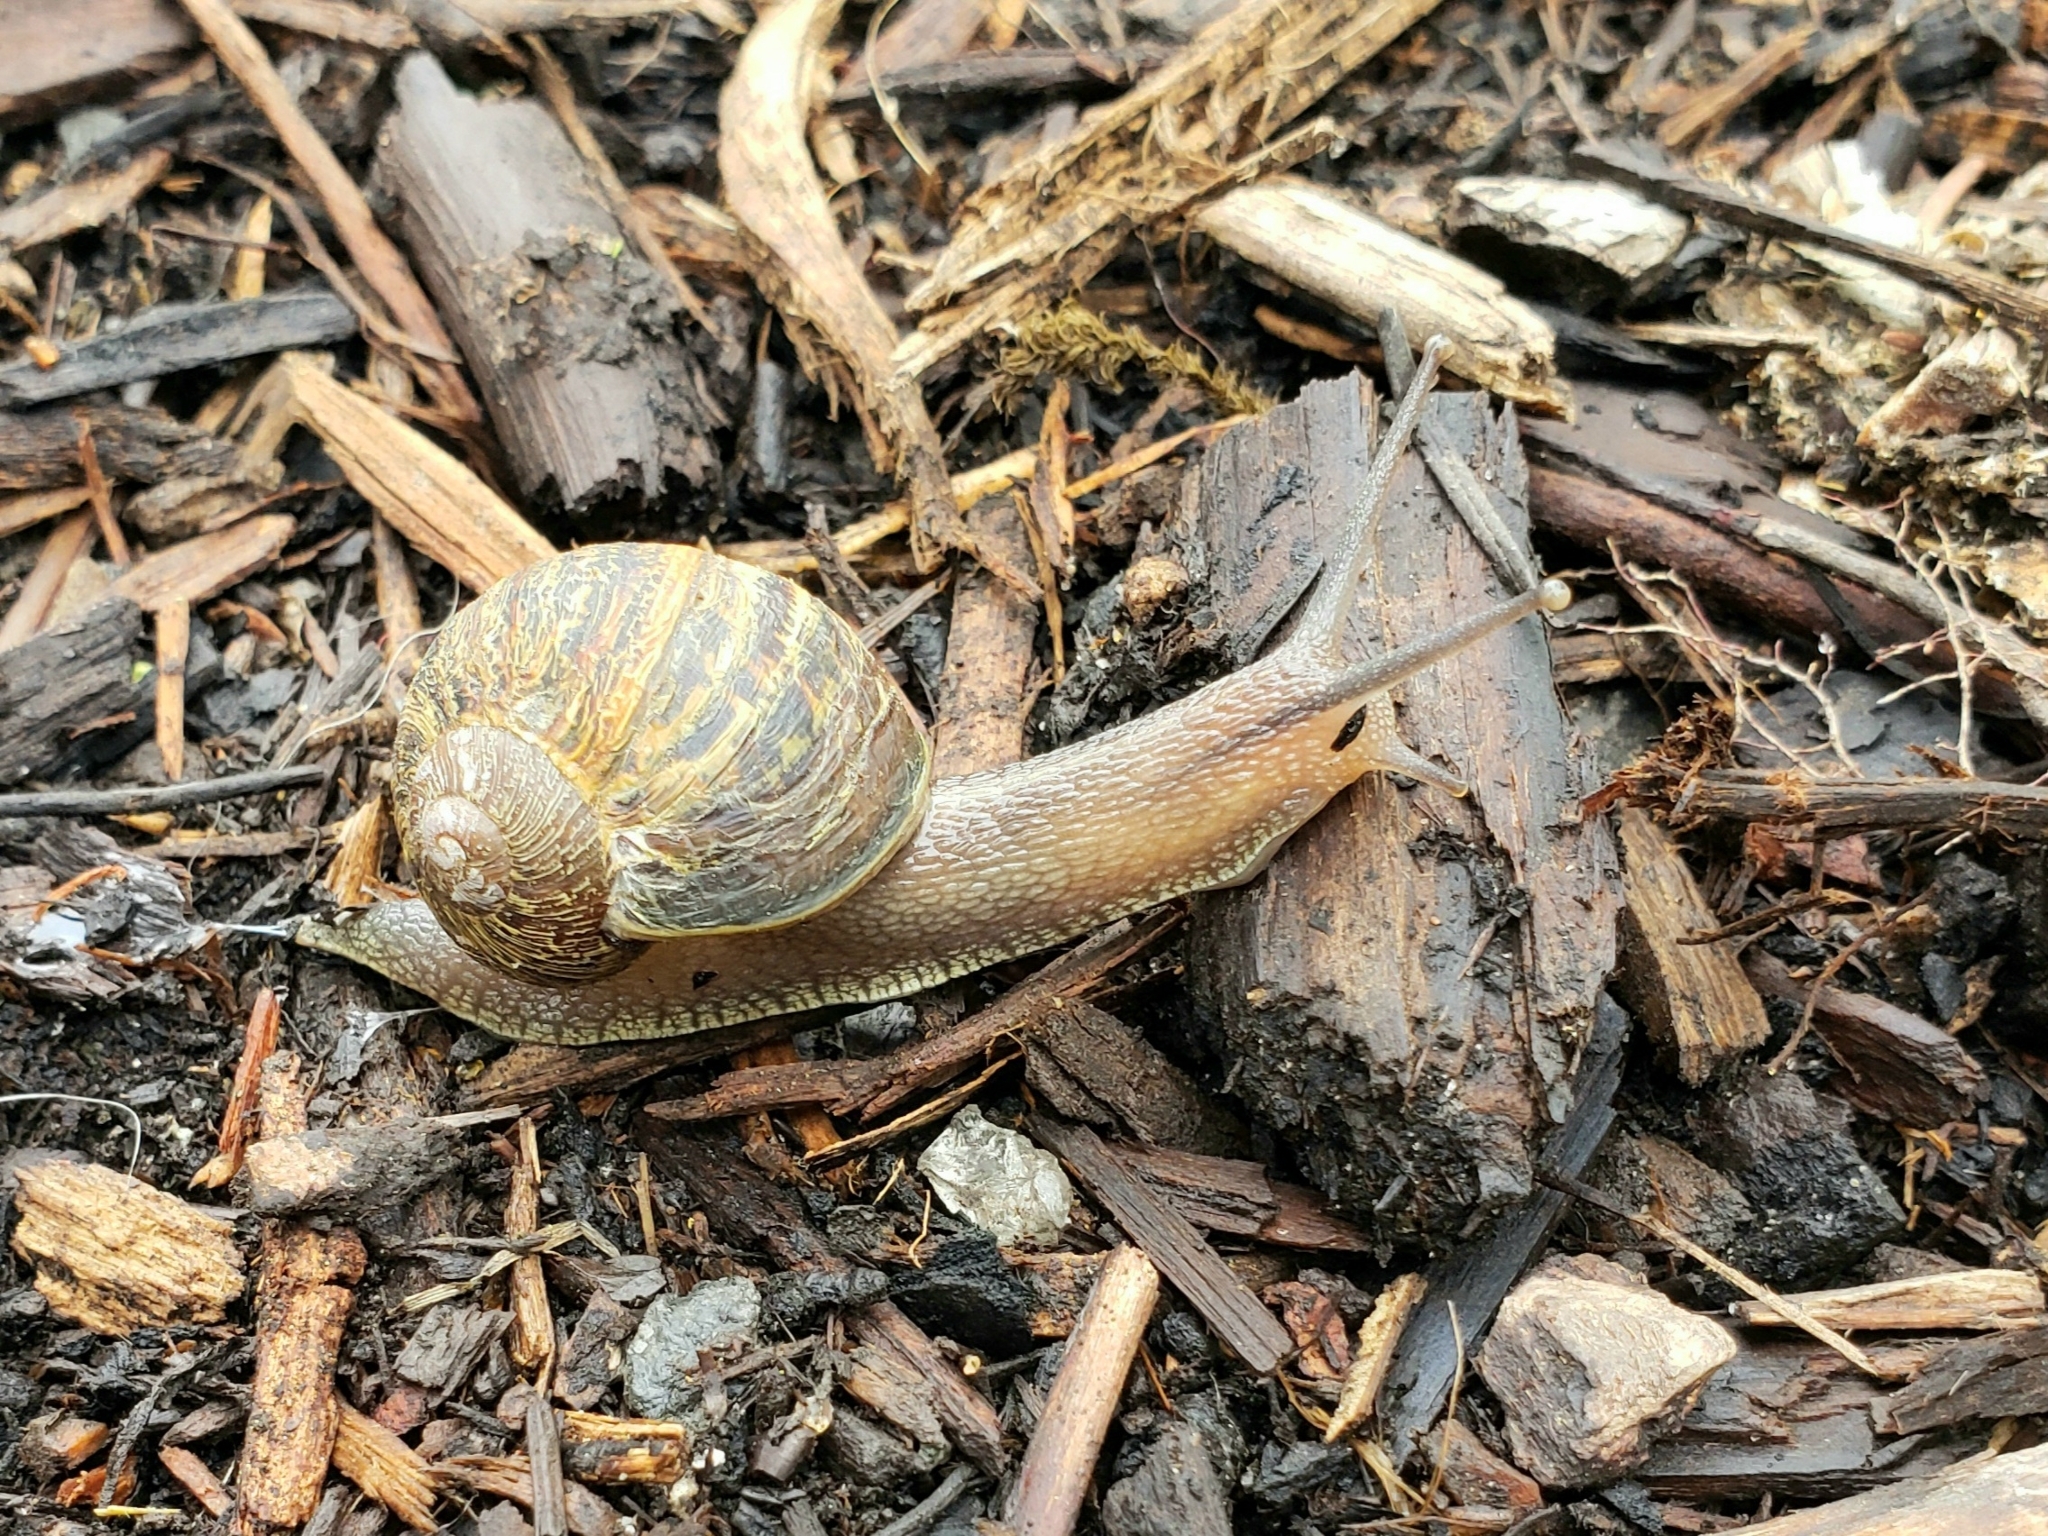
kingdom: Animalia
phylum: Mollusca
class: Gastropoda
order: Stylommatophora
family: Helicidae
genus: Cornu
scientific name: Cornu aspersum
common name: Brown garden snail
